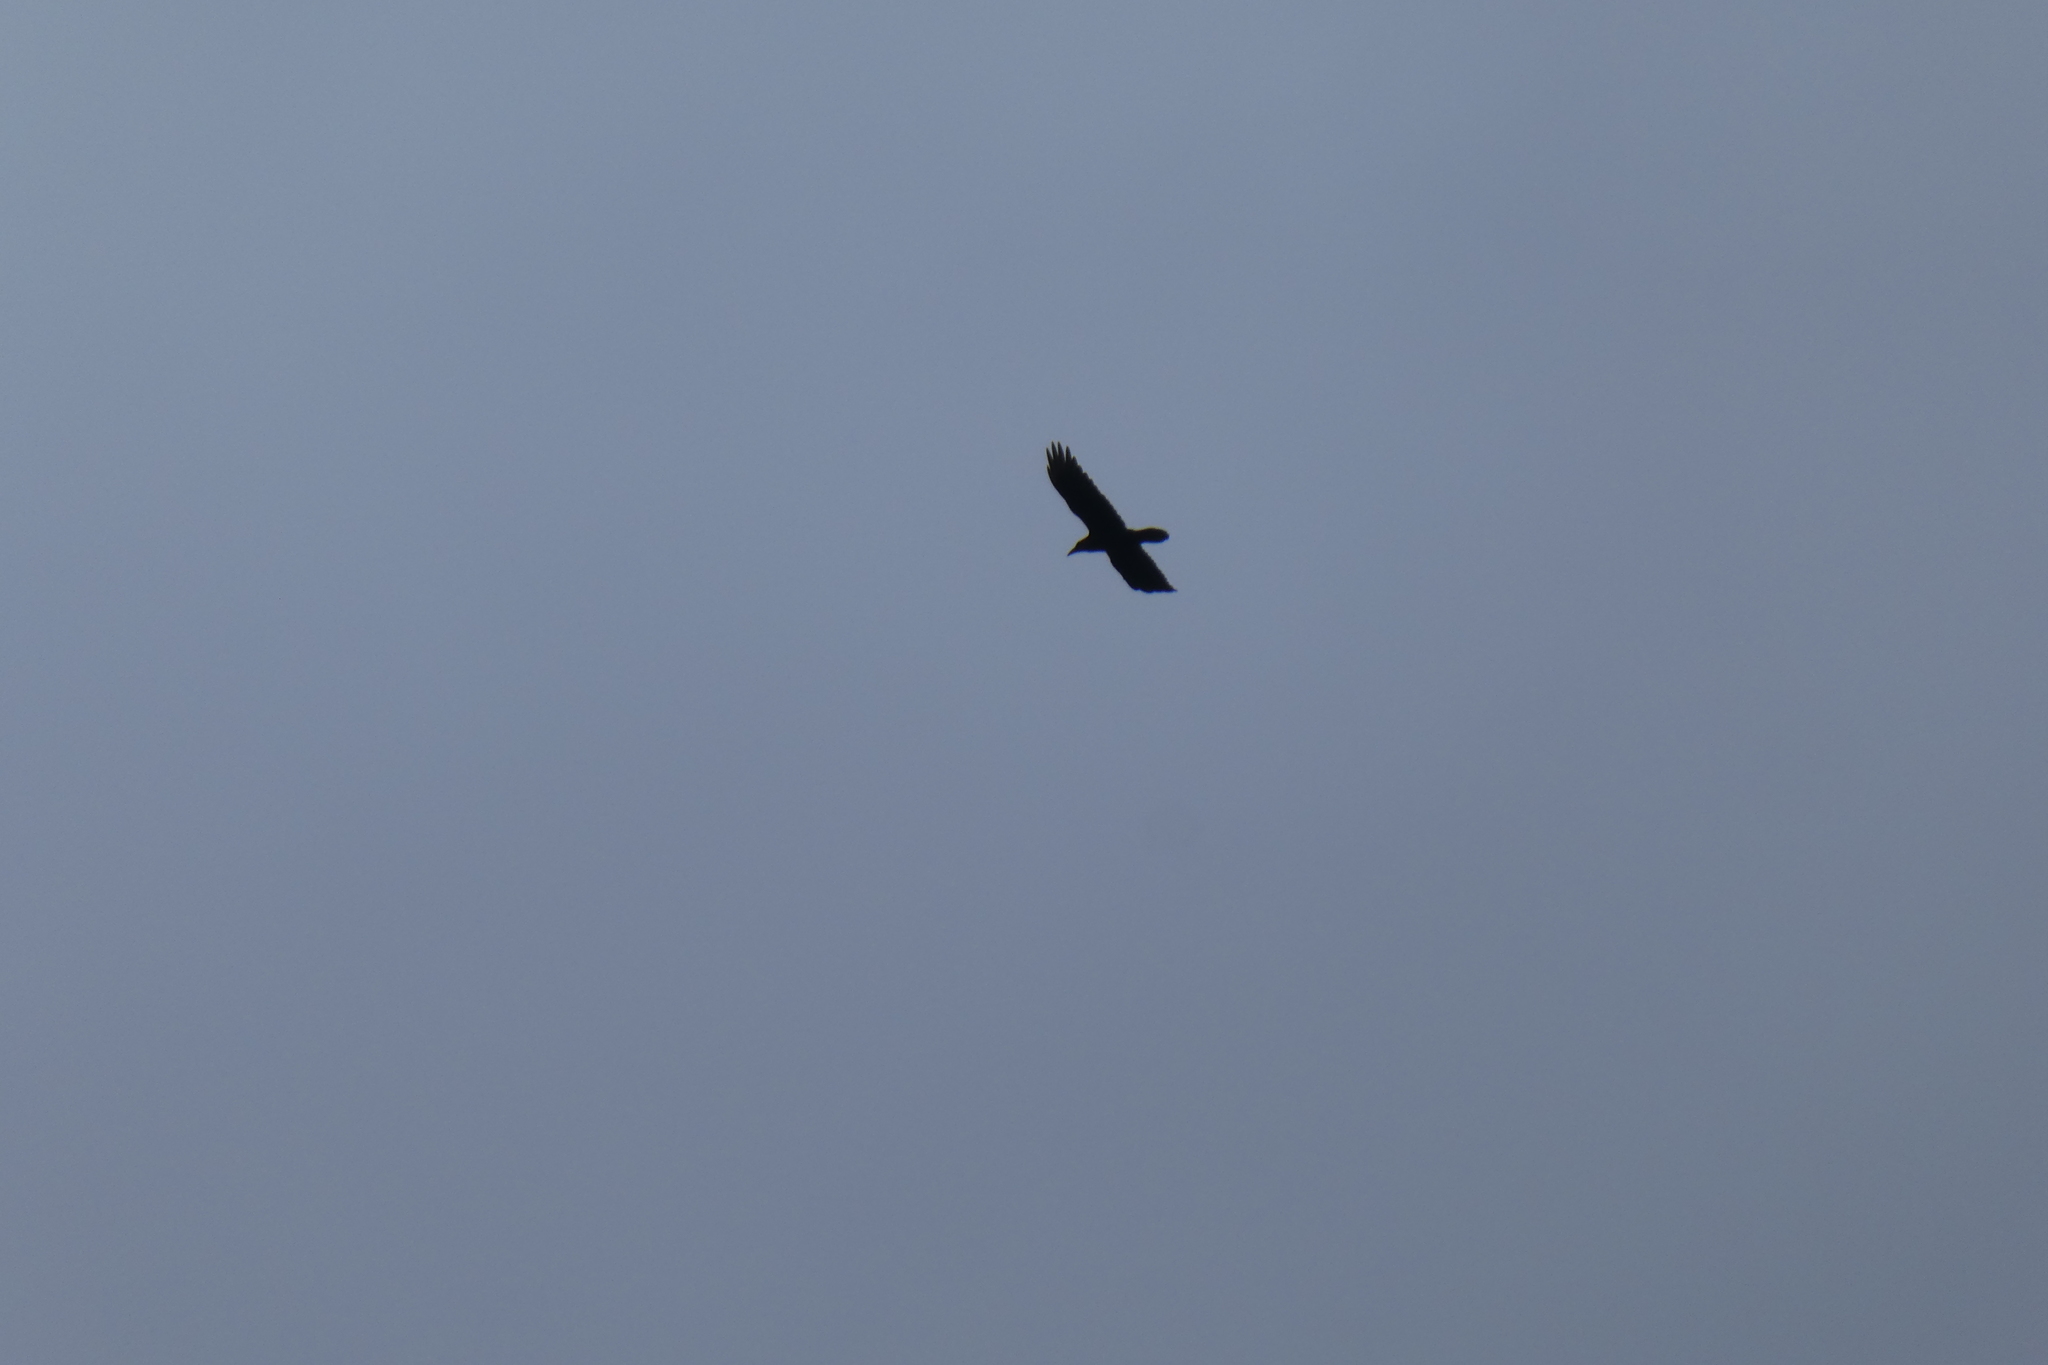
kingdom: Animalia
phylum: Chordata
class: Aves
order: Passeriformes
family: Corvidae
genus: Corvus
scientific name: Corvus corax
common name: Common raven
